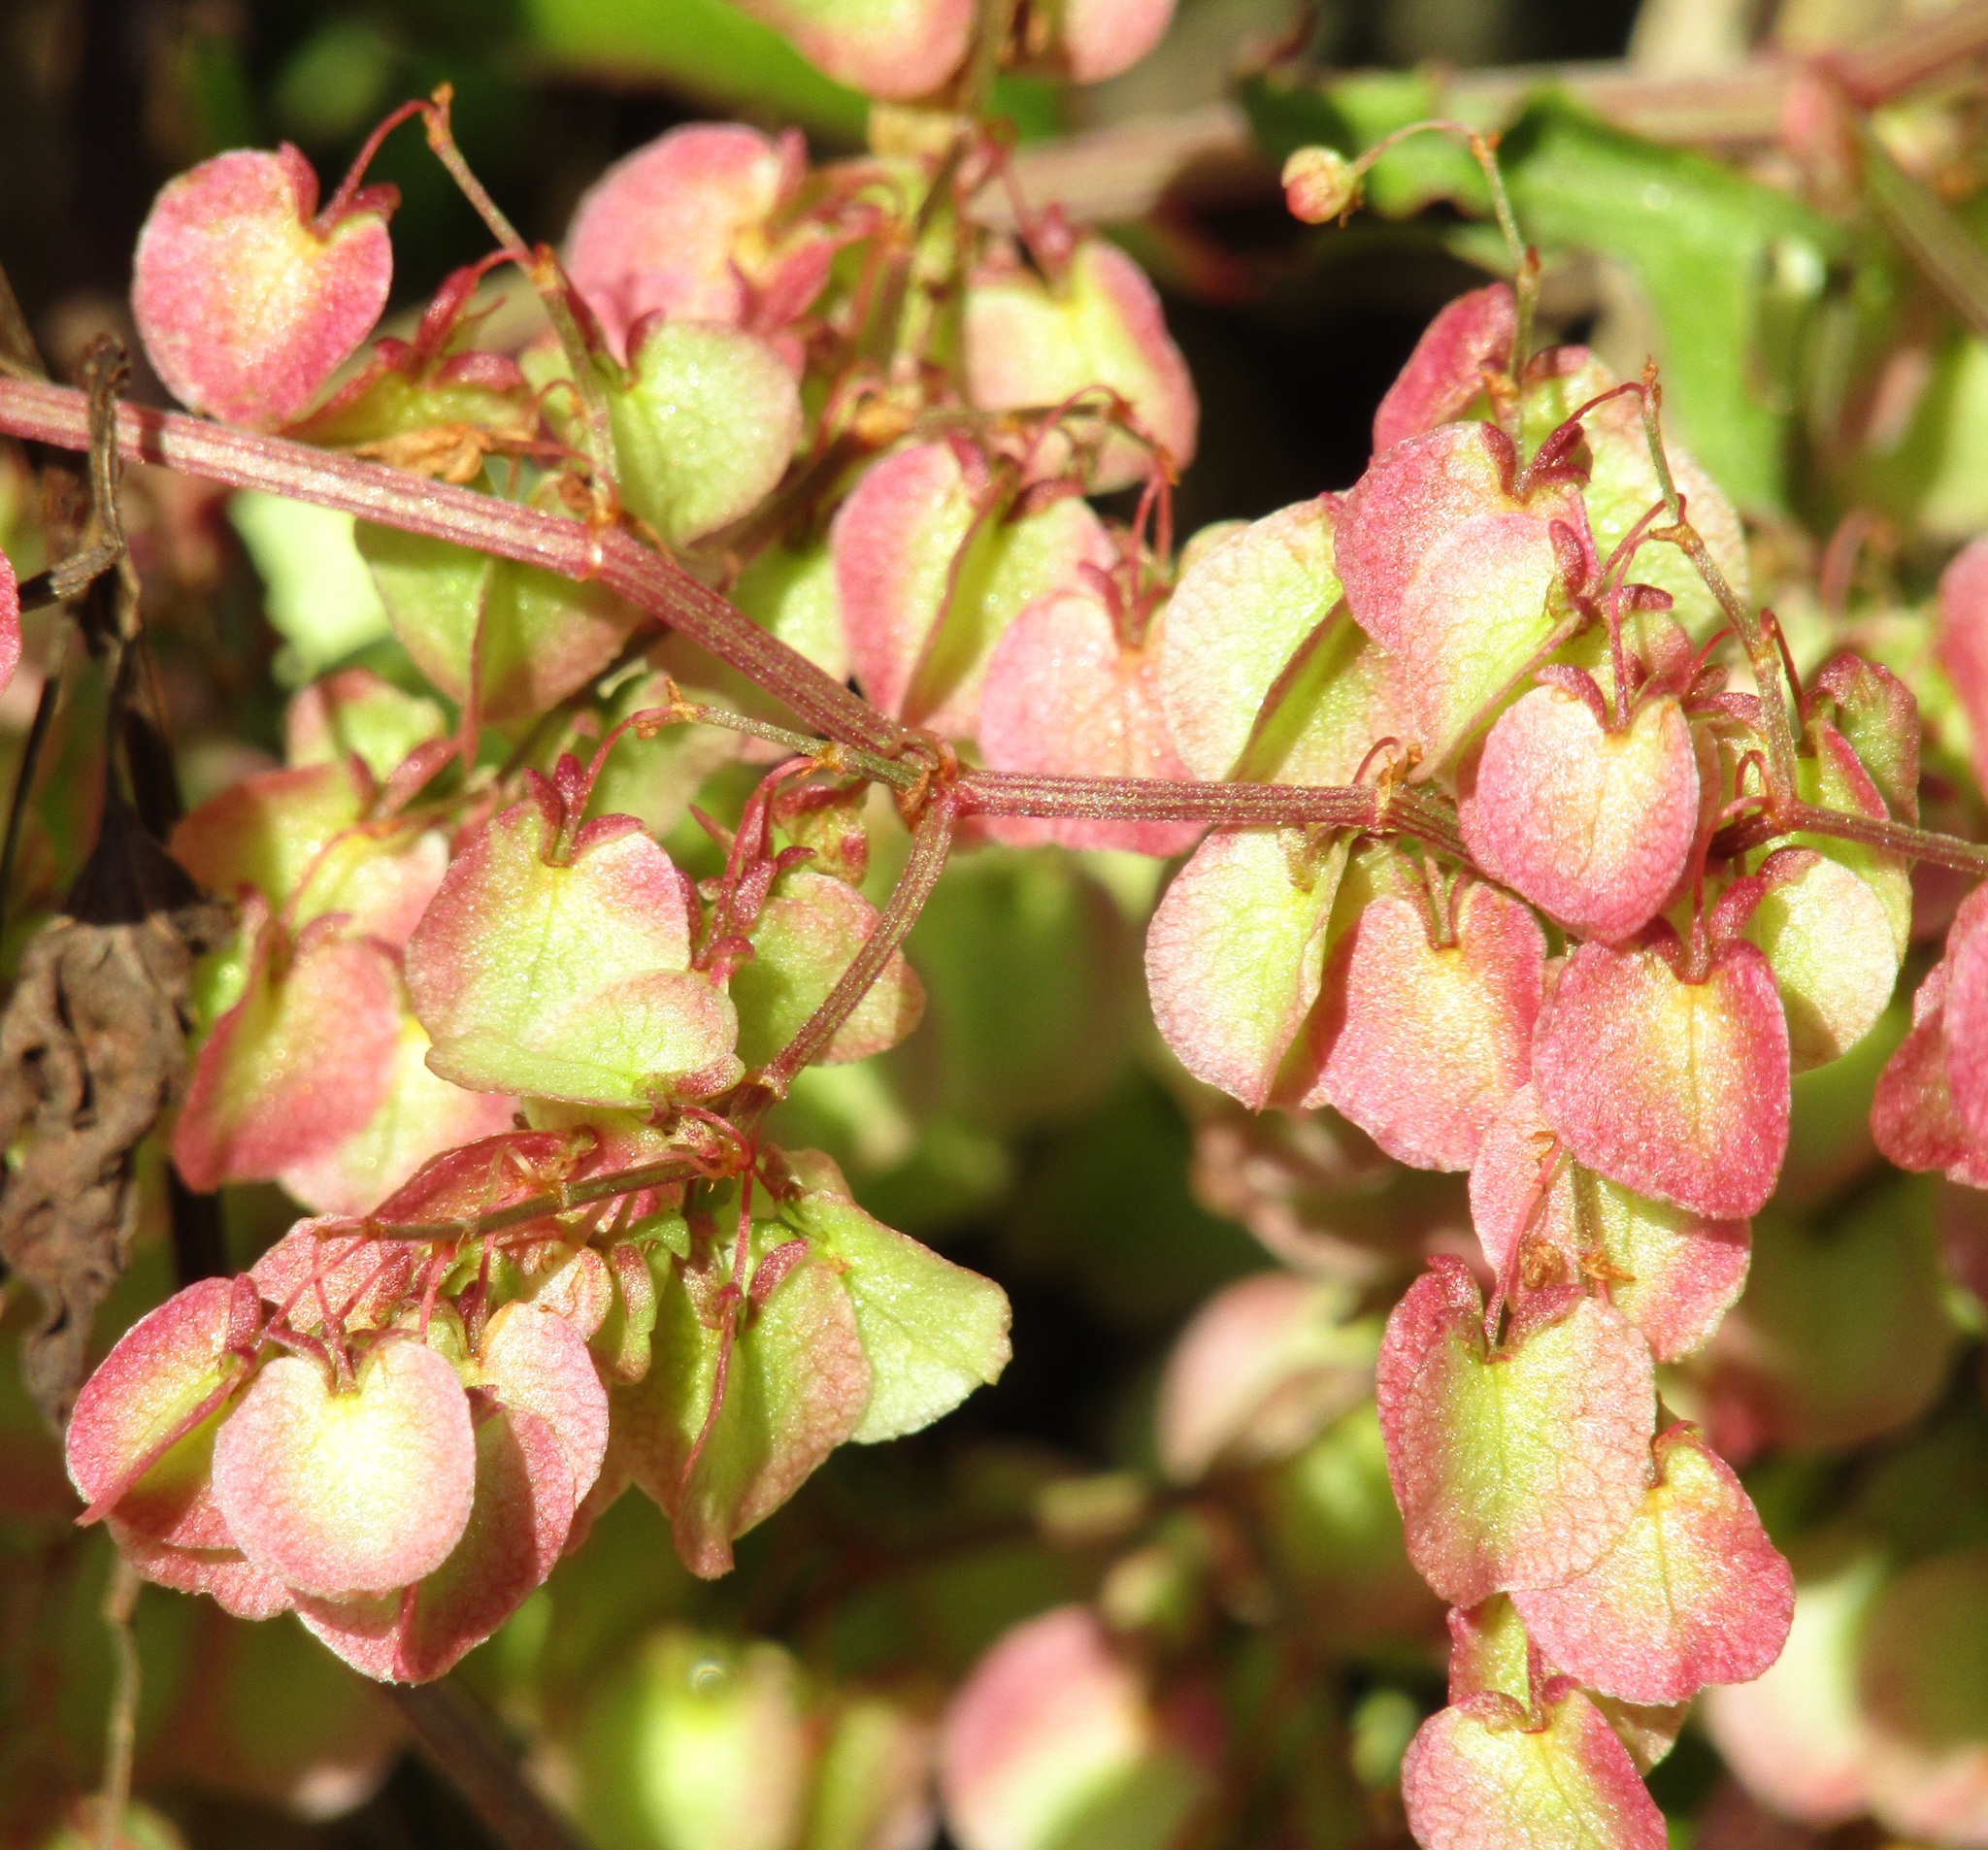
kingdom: Plantae
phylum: Tracheophyta
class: Magnoliopsida
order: Caryophyllales
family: Polygonaceae
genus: Rumex
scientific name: Rumex sagittatus
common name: Climbing dock
